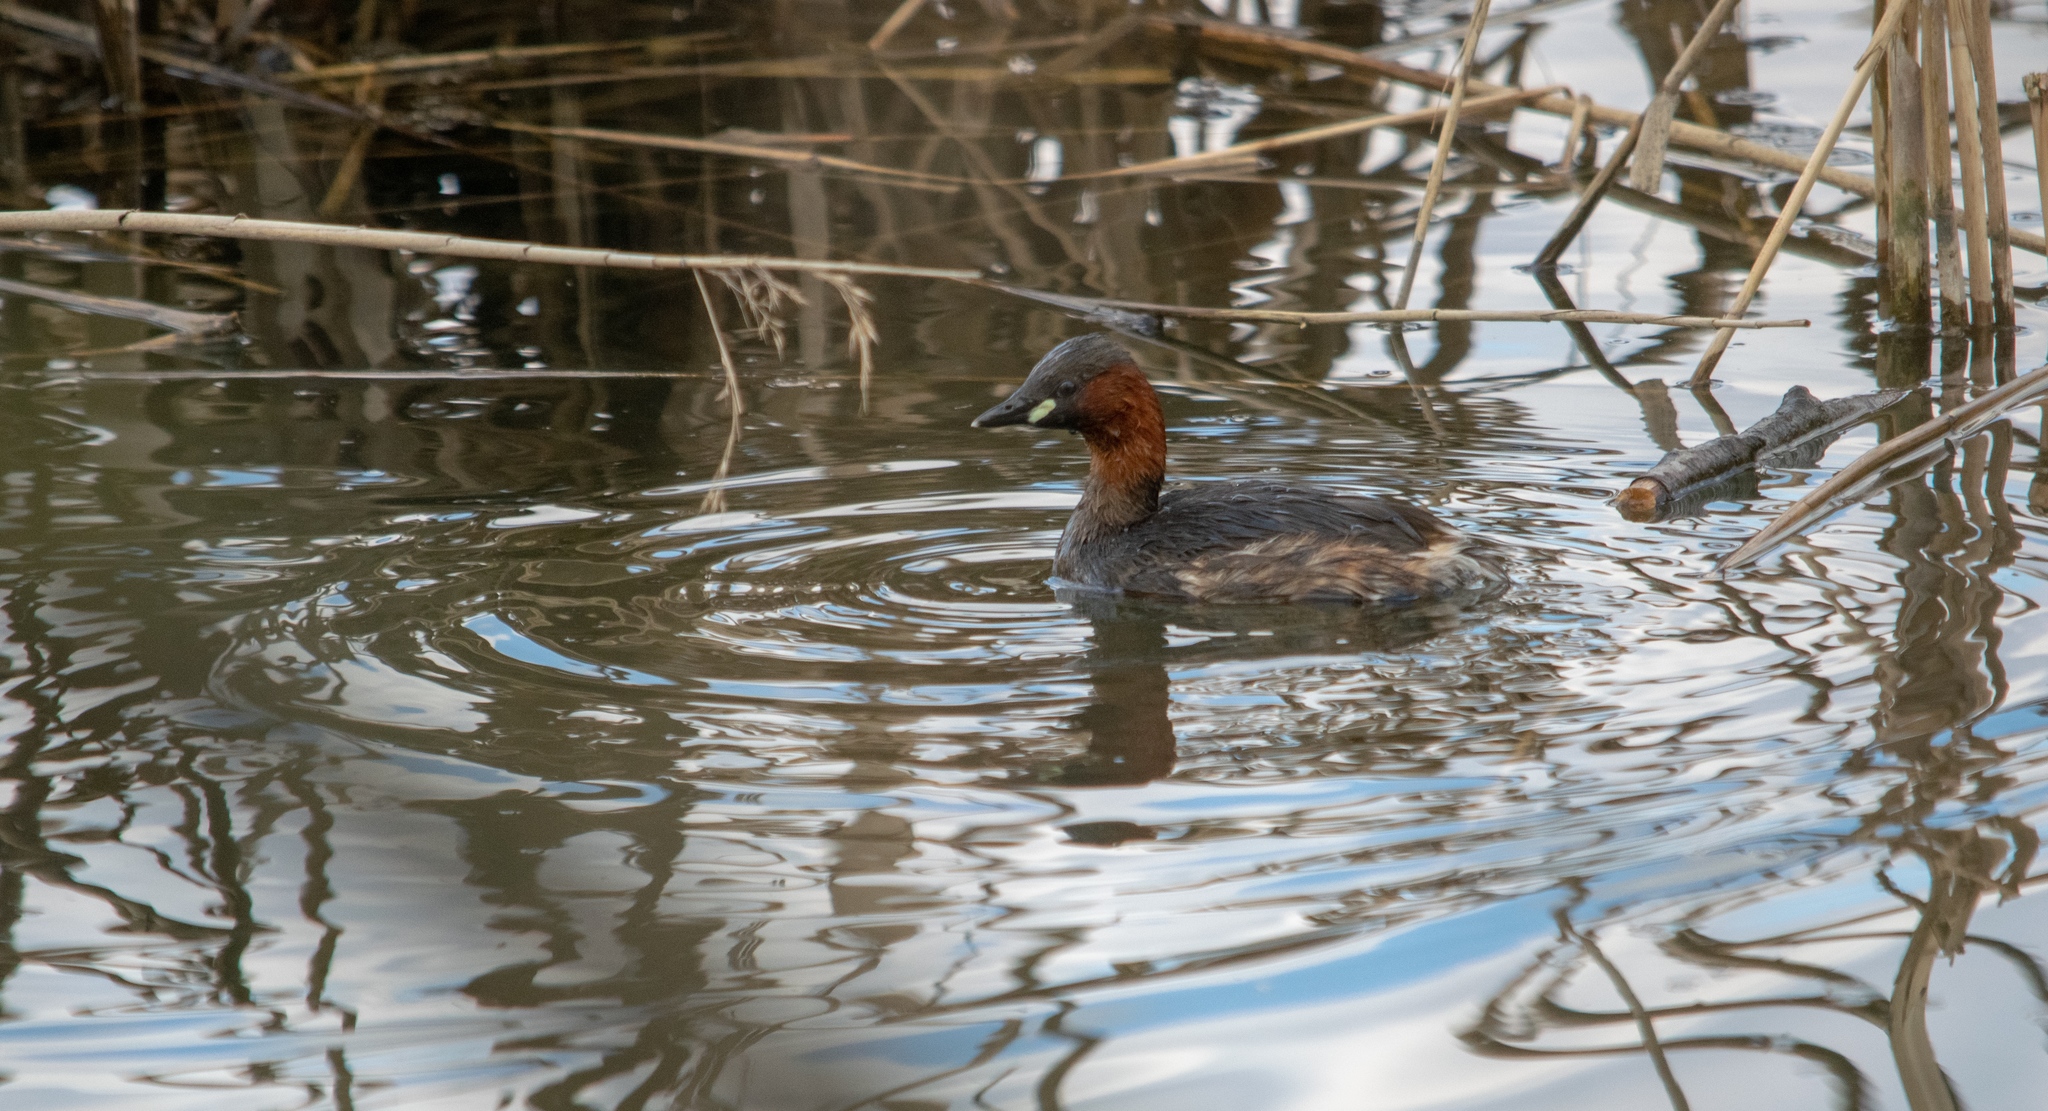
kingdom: Animalia
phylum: Chordata
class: Aves
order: Podicipediformes
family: Podicipedidae
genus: Tachybaptus
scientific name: Tachybaptus ruficollis
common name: Little grebe
